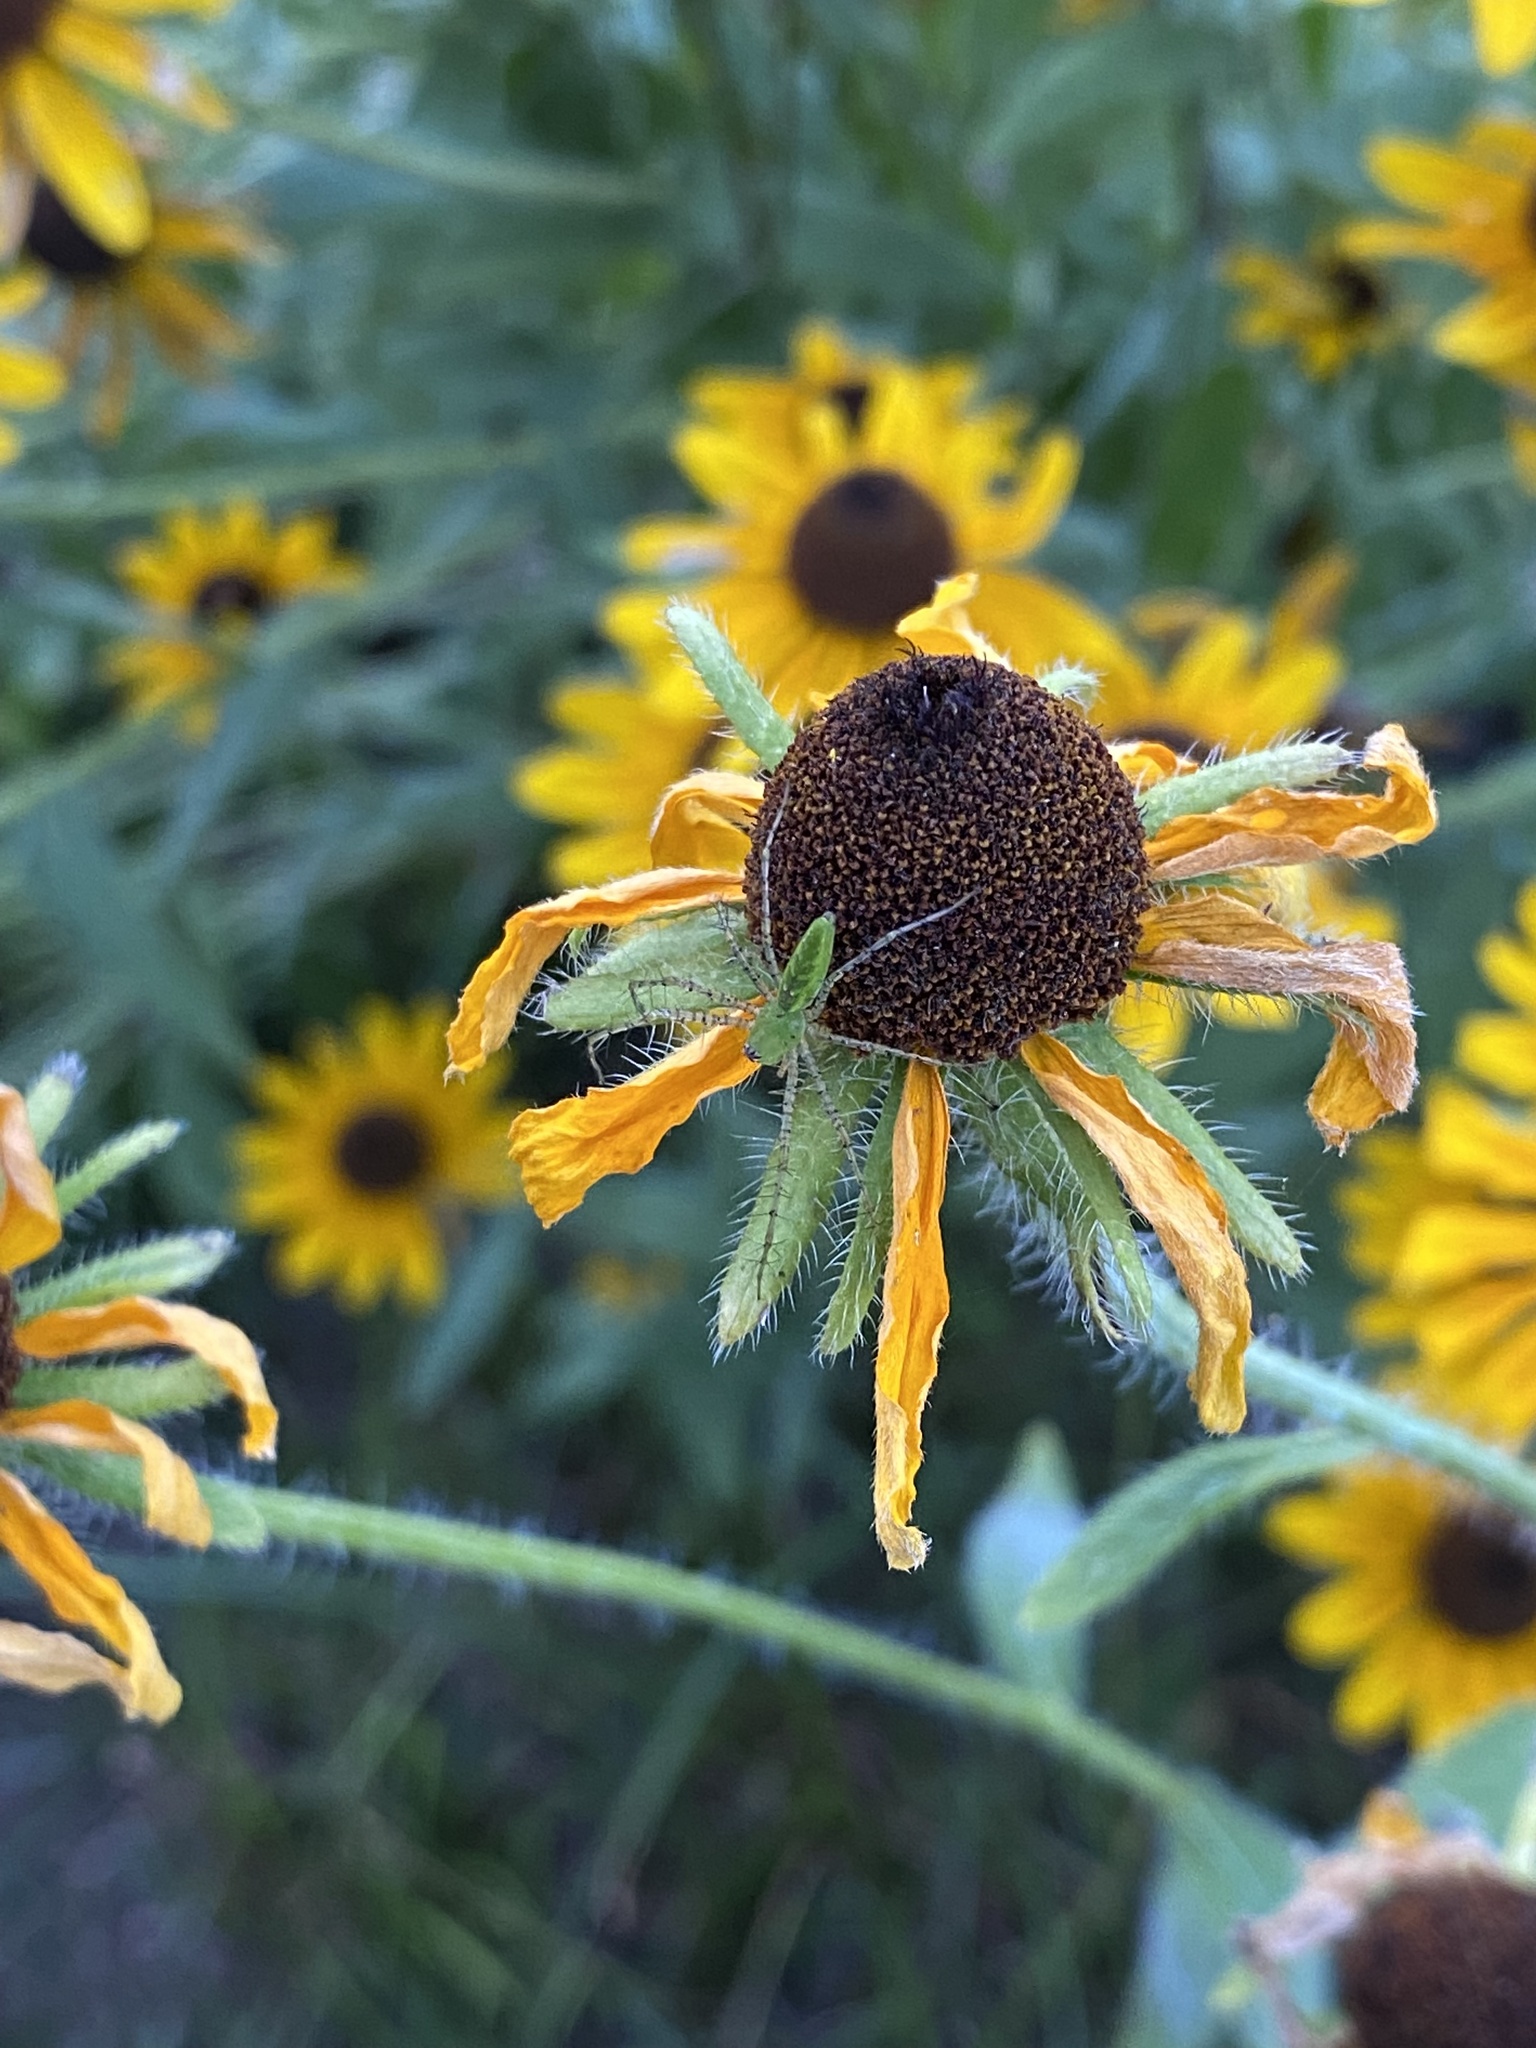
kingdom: Animalia
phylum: Arthropoda
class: Arachnida
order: Araneae
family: Oxyopidae
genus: Peucetia
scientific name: Peucetia viridans
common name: Lynx spiders
